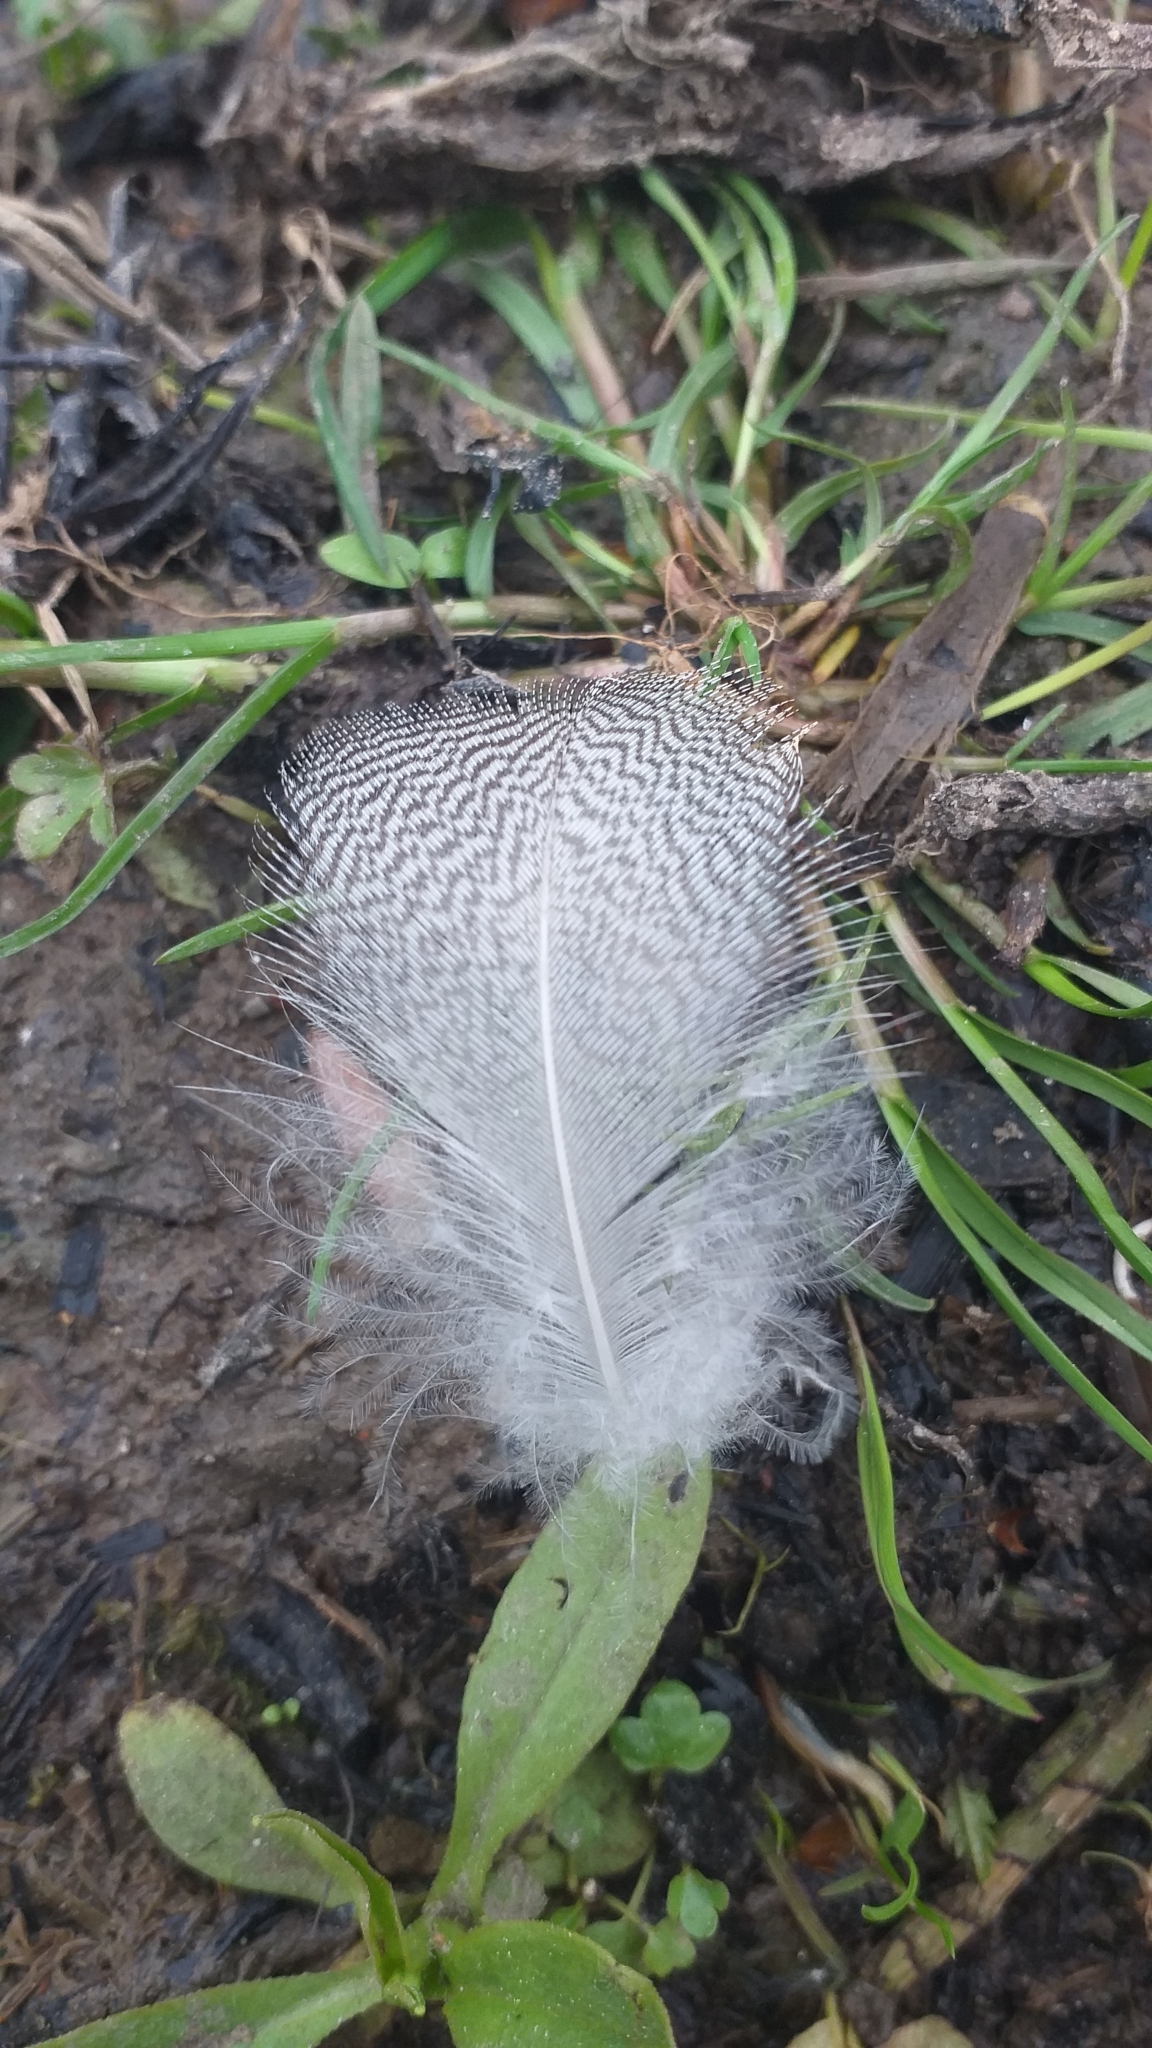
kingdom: Animalia
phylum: Chordata
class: Aves
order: Anseriformes
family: Anatidae
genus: Anas
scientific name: Anas platyrhynchos
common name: Mallard
